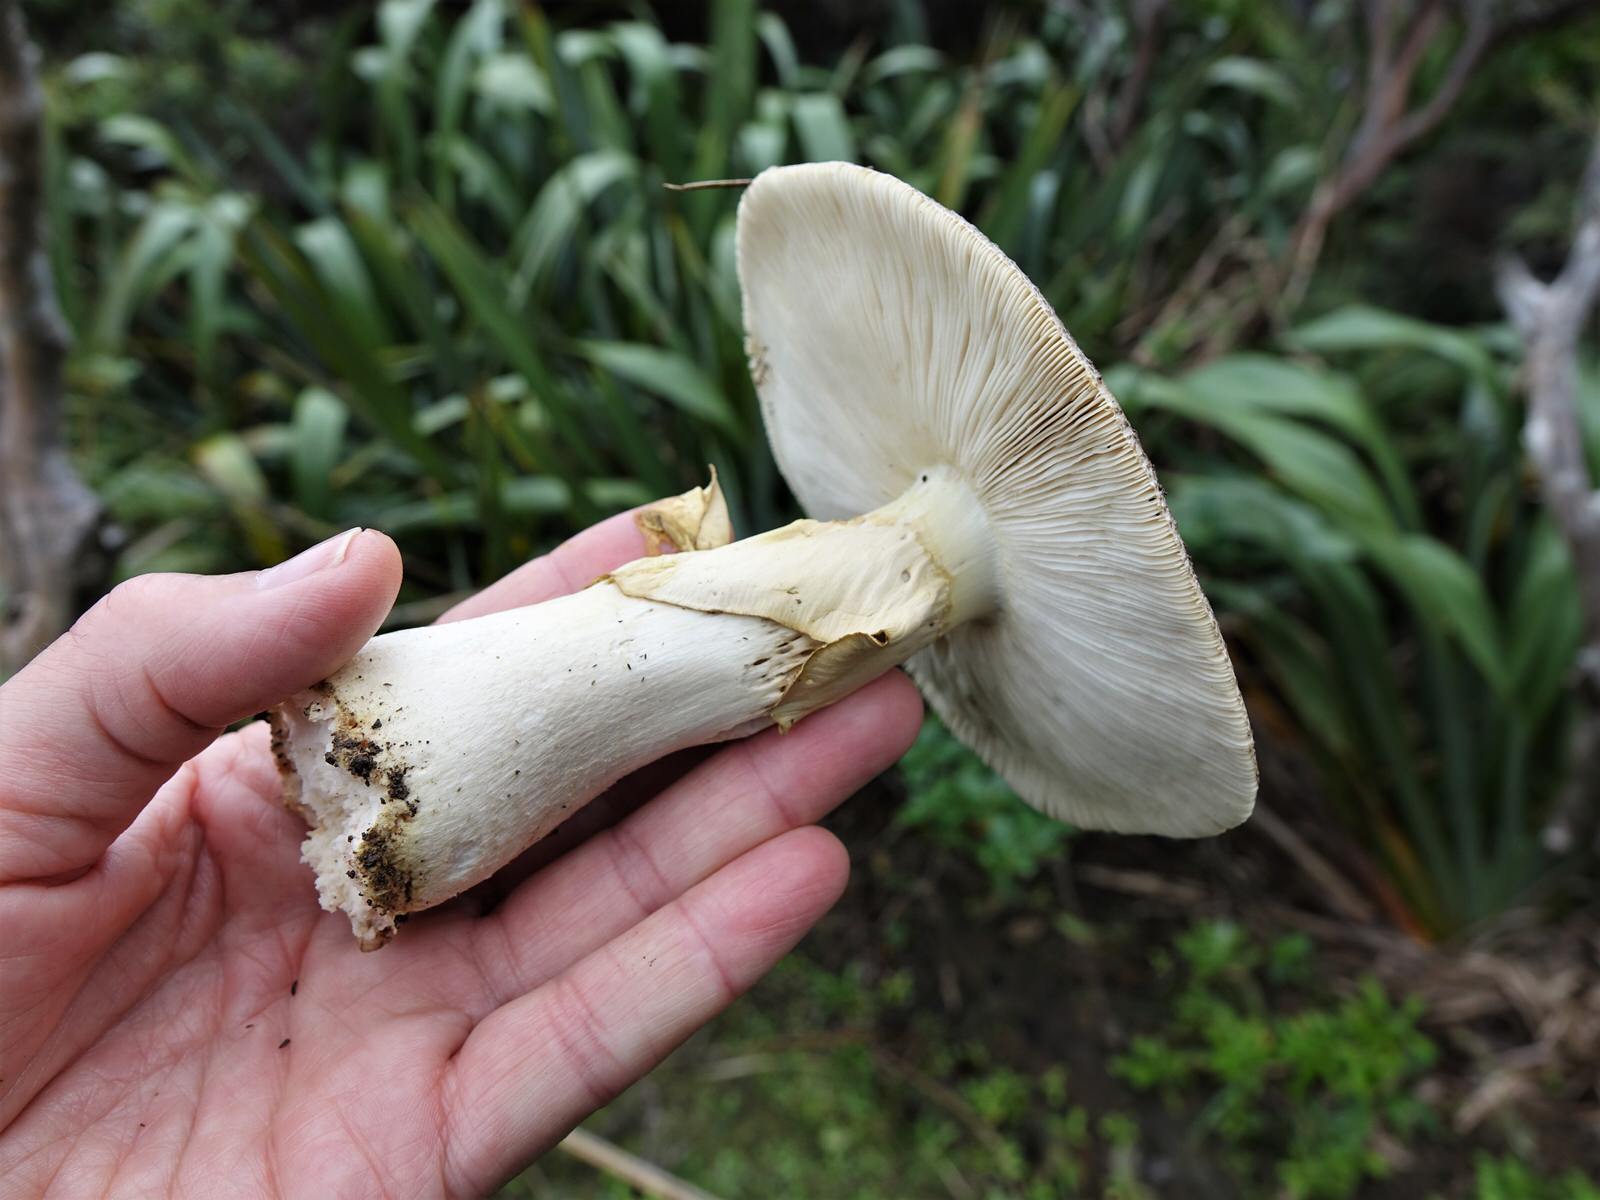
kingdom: Fungi
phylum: Basidiomycota
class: Agaricomycetes
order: Agaricales
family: Amanitaceae
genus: Amanita
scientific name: Amanita nothofagi
